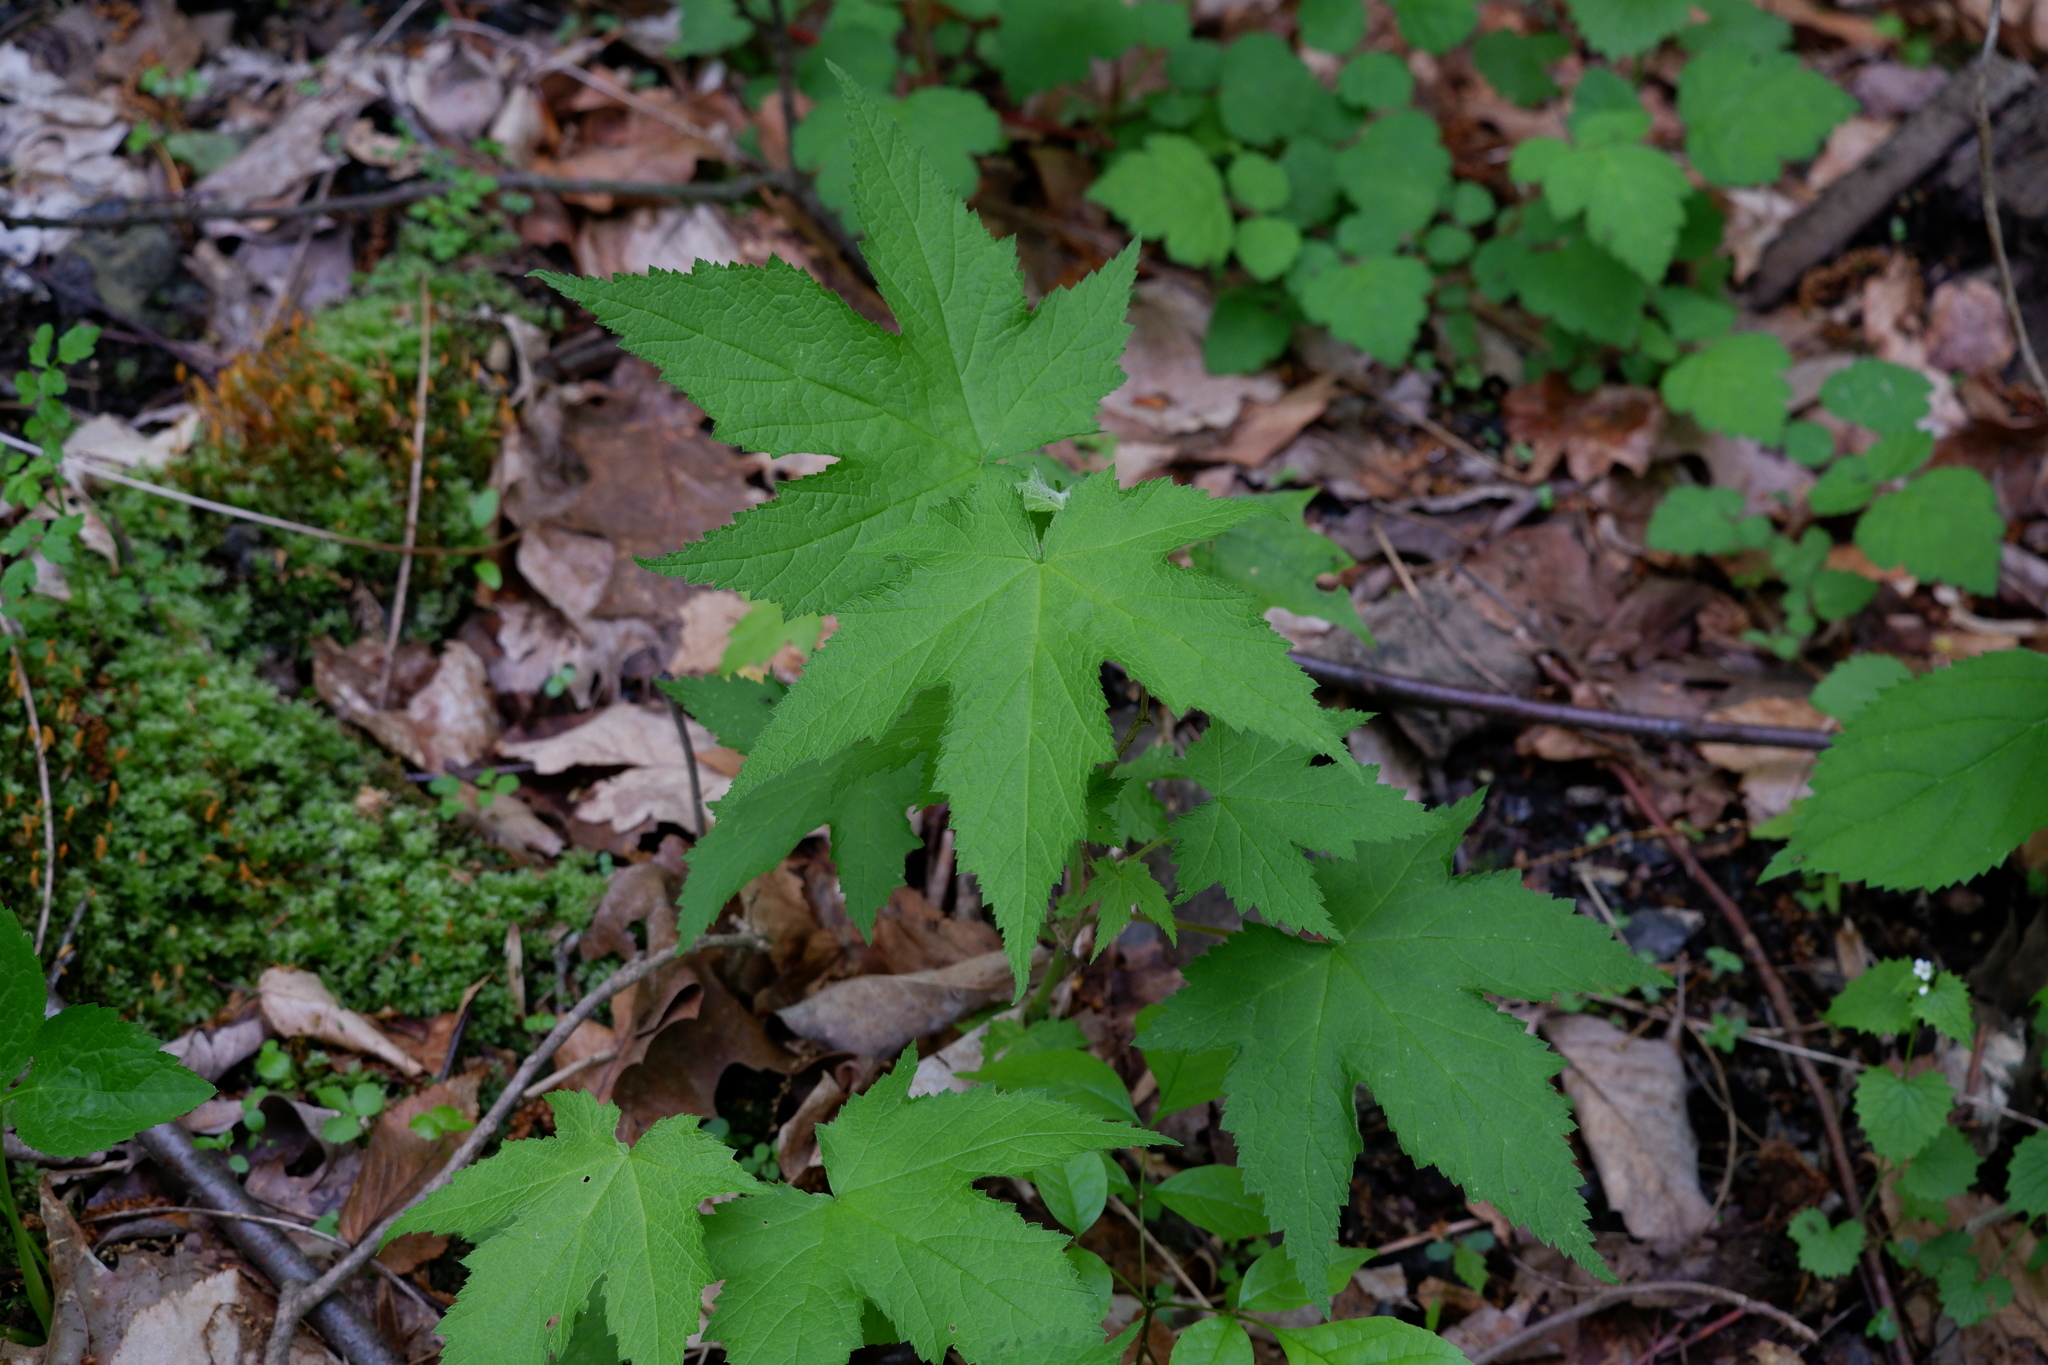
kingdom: Plantae
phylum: Tracheophyta
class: Magnoliopsida
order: Rosales
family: Rosaceae
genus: Rubus
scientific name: Rubus odoratus
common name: Purple-flowered raspberry
